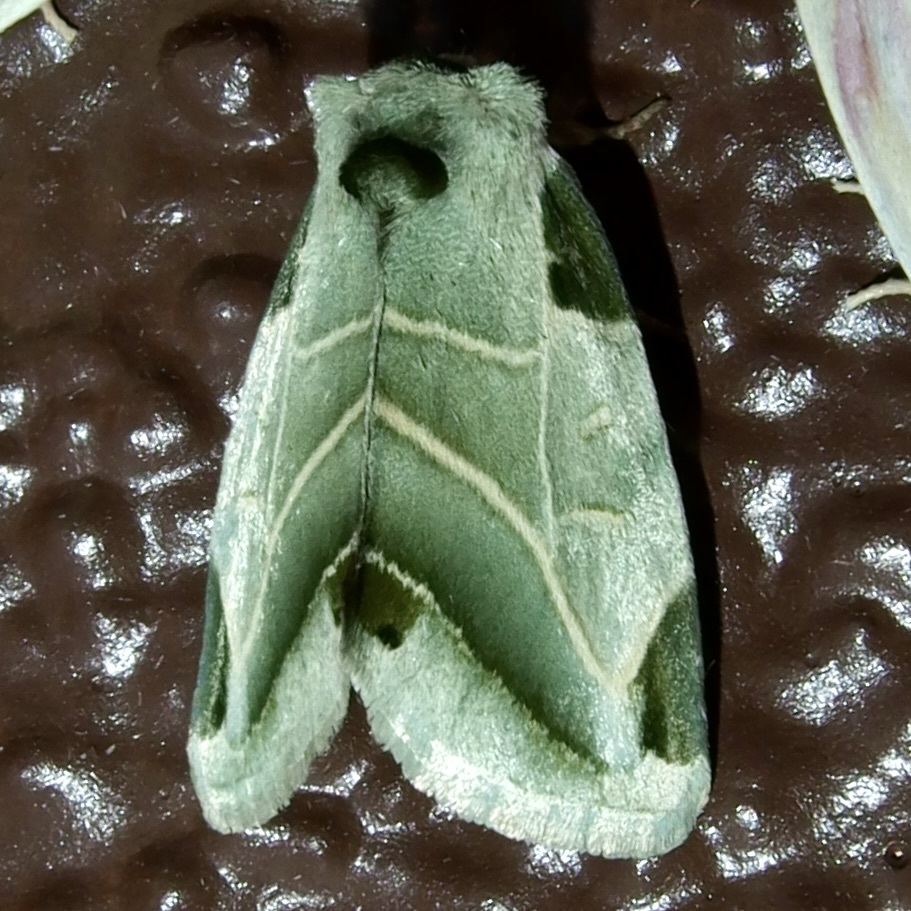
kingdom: Animalia
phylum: Arthropoda
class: Insecta
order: Lepidoptera
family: Noctuidae
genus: Heminocloa
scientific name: Heminocloa mirabilis
